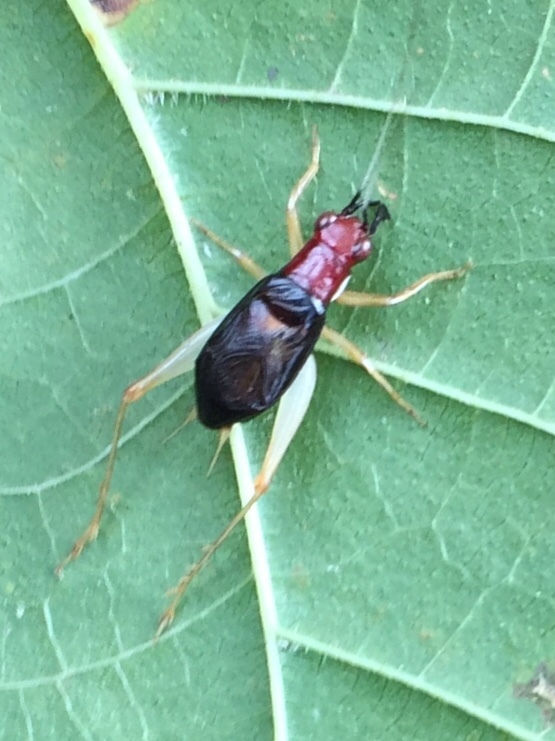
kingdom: Animalia
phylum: Arthropoda
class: Insecta
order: Orthoptera
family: Trigonidiidae
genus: Phyllopalpus
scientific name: Phyllopalpus pulchellus
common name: Handsome trig
